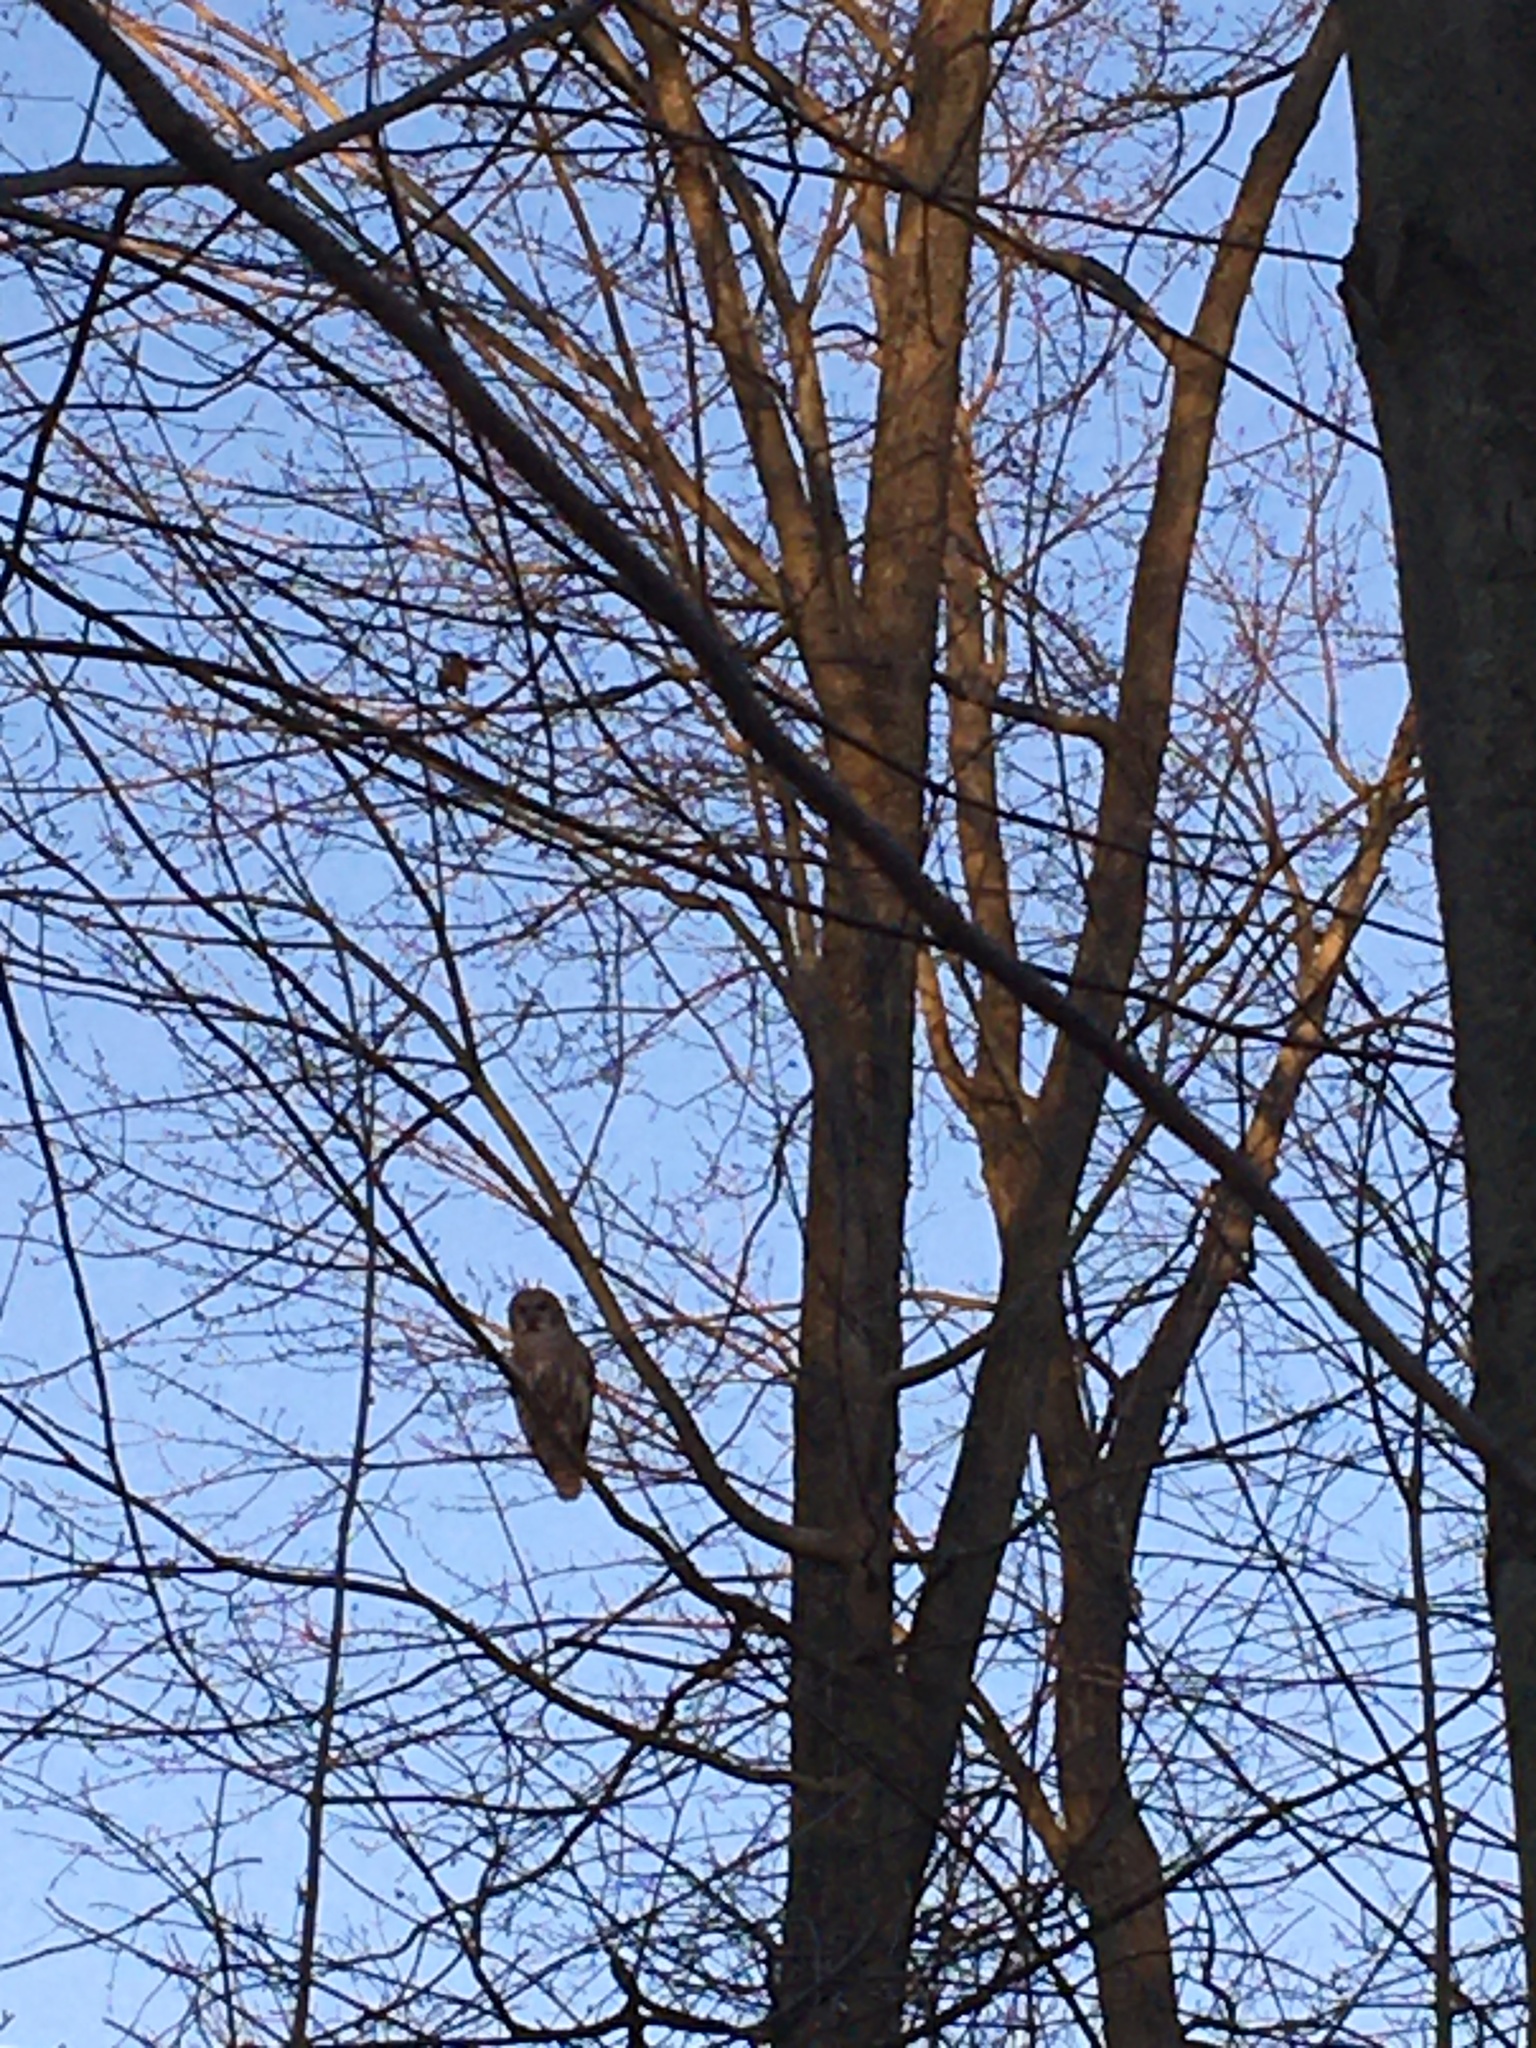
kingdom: Animalia
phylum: Chordata
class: Aves
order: Strigiformes
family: Strigidae
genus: Strix
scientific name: Strix varia
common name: Barred owl
